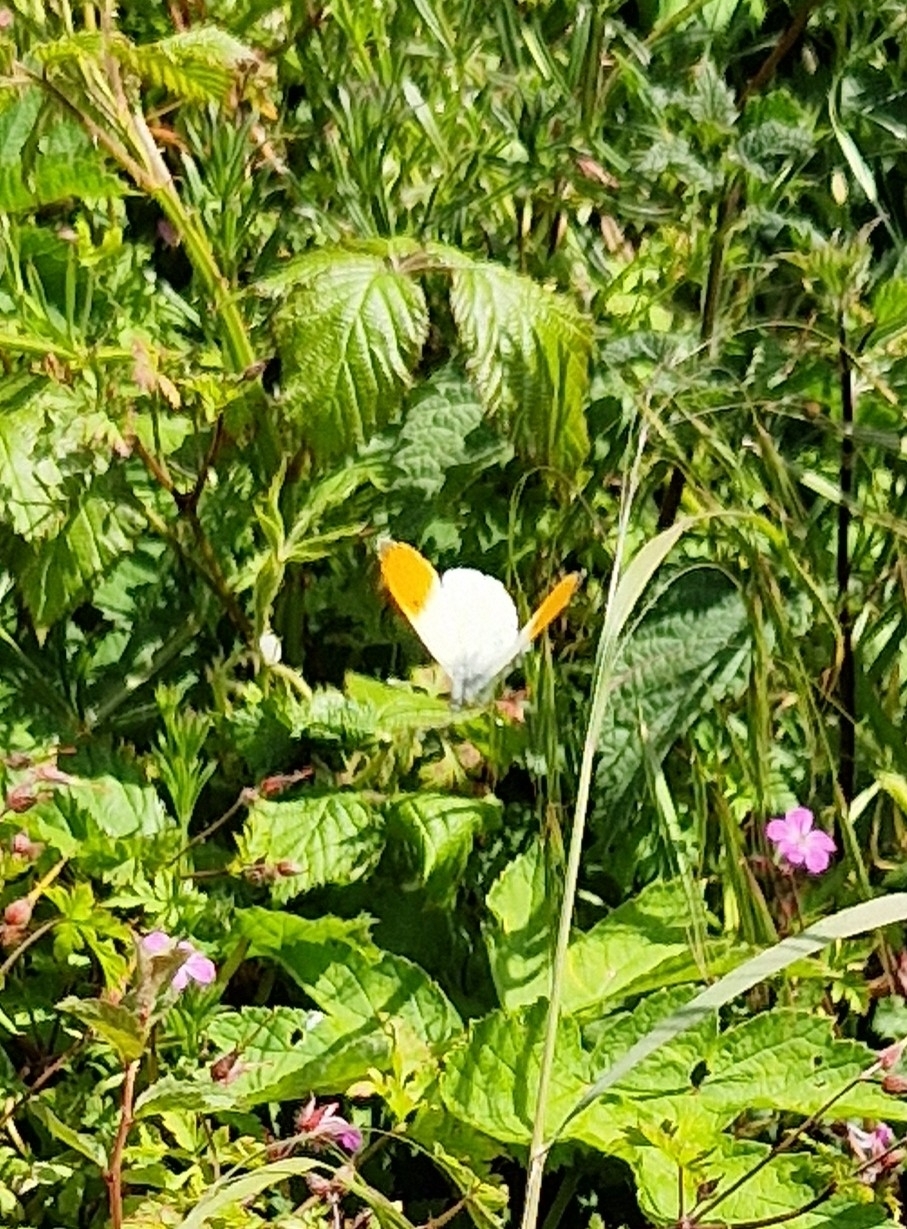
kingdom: Animalia
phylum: Arthropoda
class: Insecta
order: Lepidoptera
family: Pieridae
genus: Anthocharis
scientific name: Anthocharis cardamines
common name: Orange-tip
